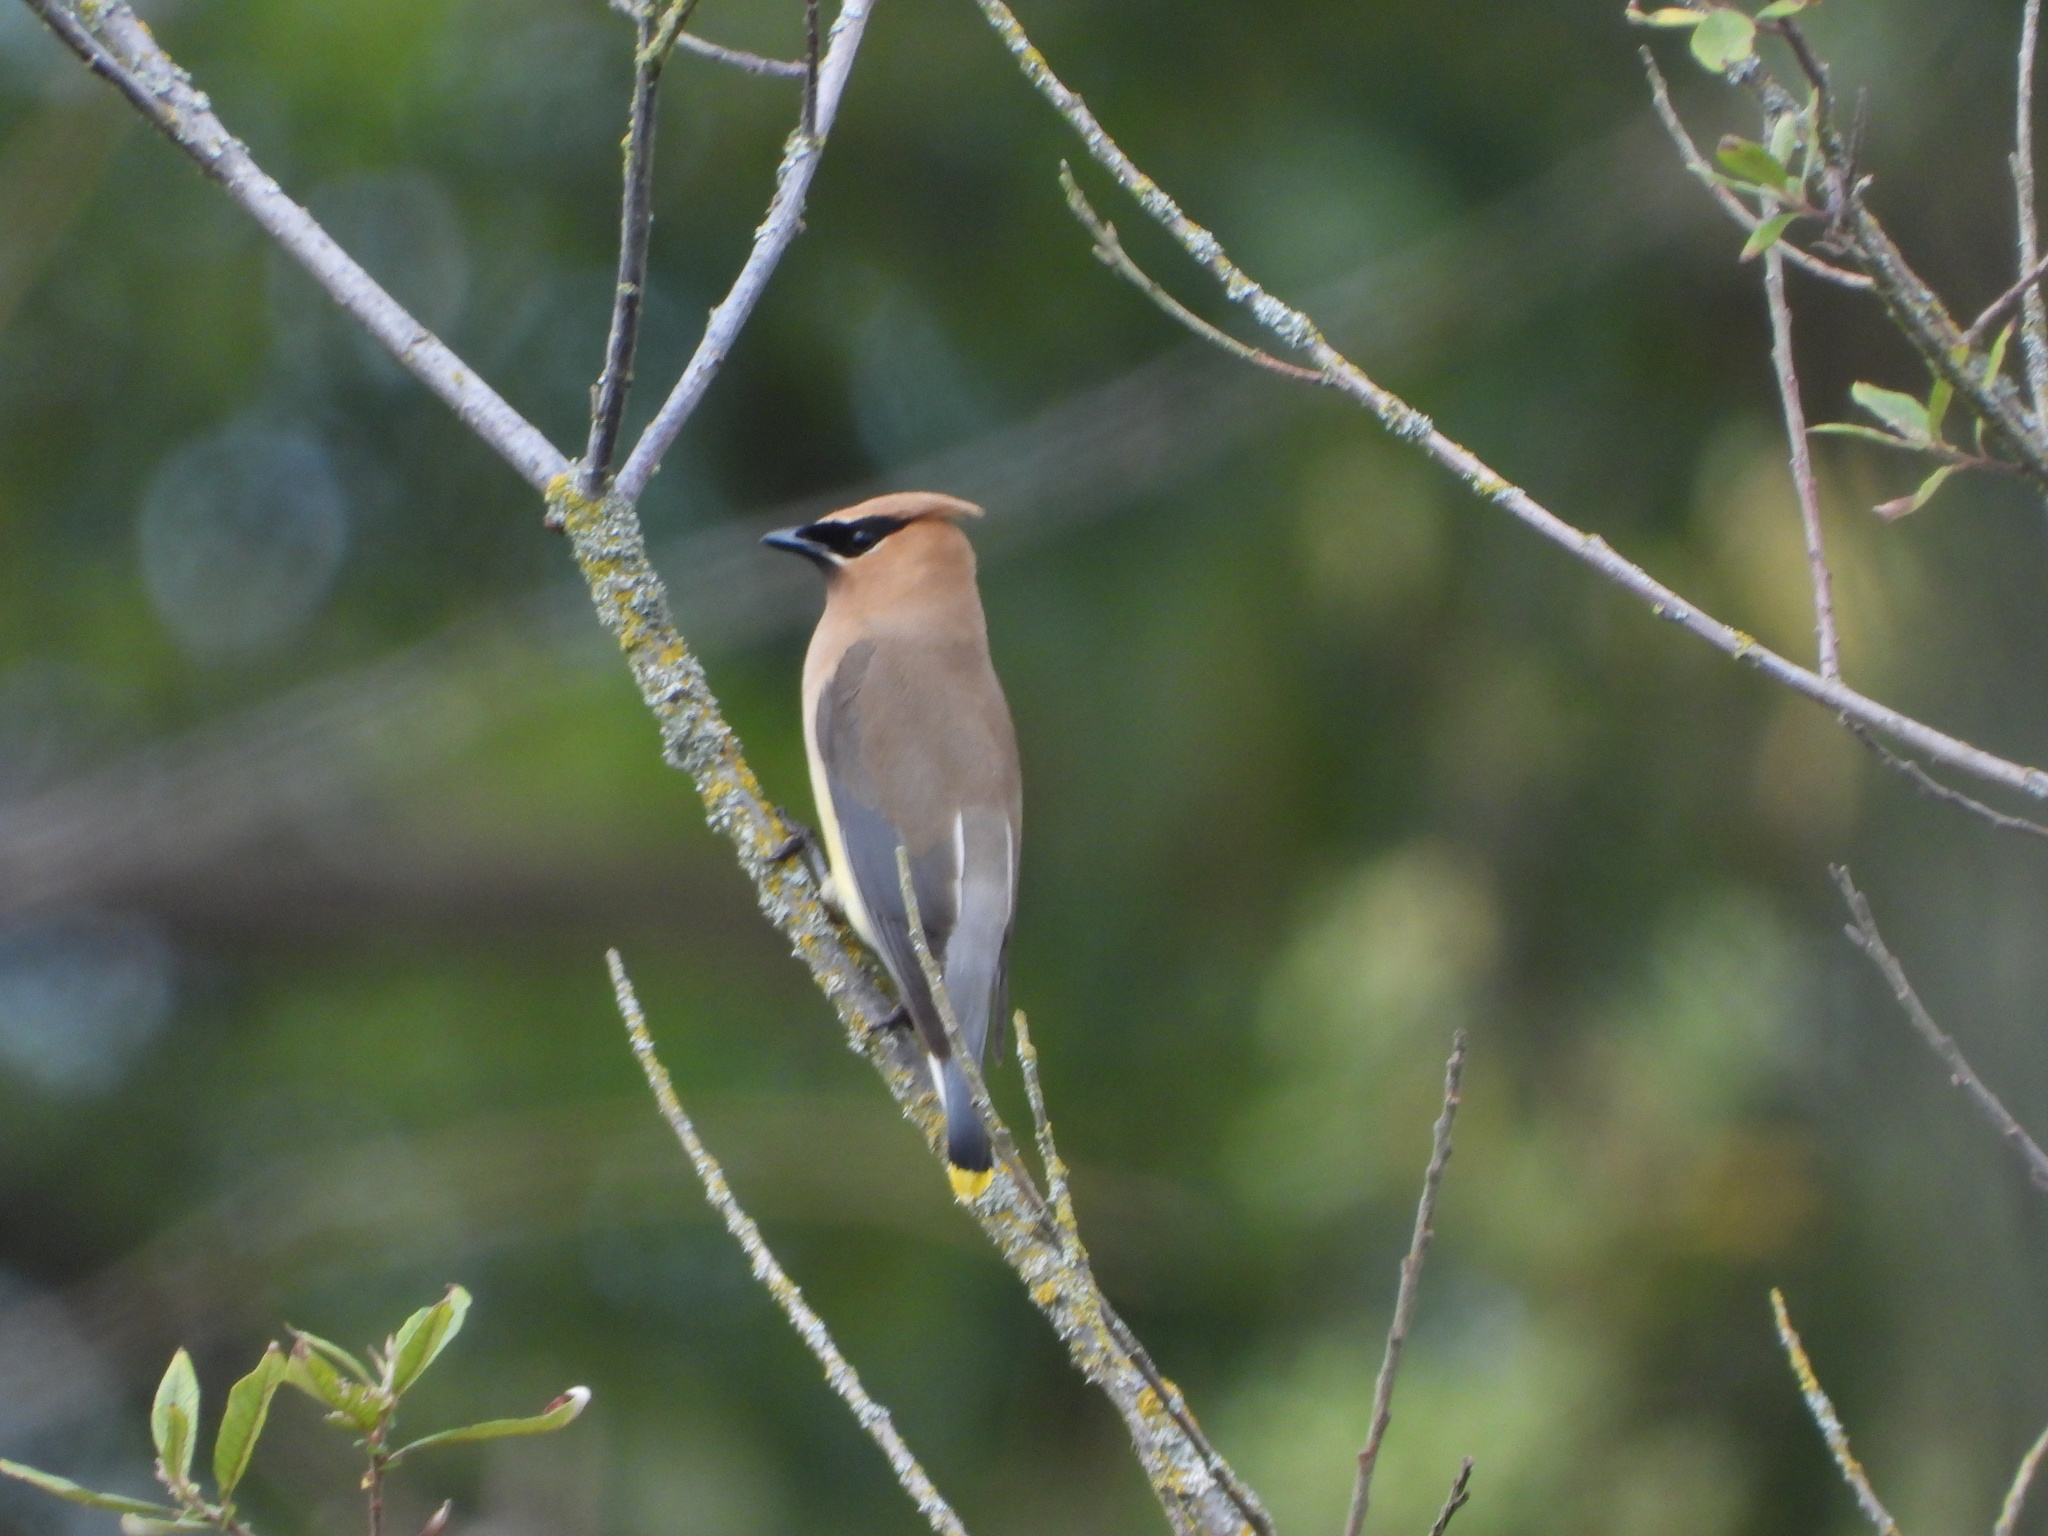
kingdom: Animalia
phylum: Chordata
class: Aves
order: Passeriformes
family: Bombycillidae
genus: Bombycilla
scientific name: Bombycilla cedrorum
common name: Cedar waxwing
